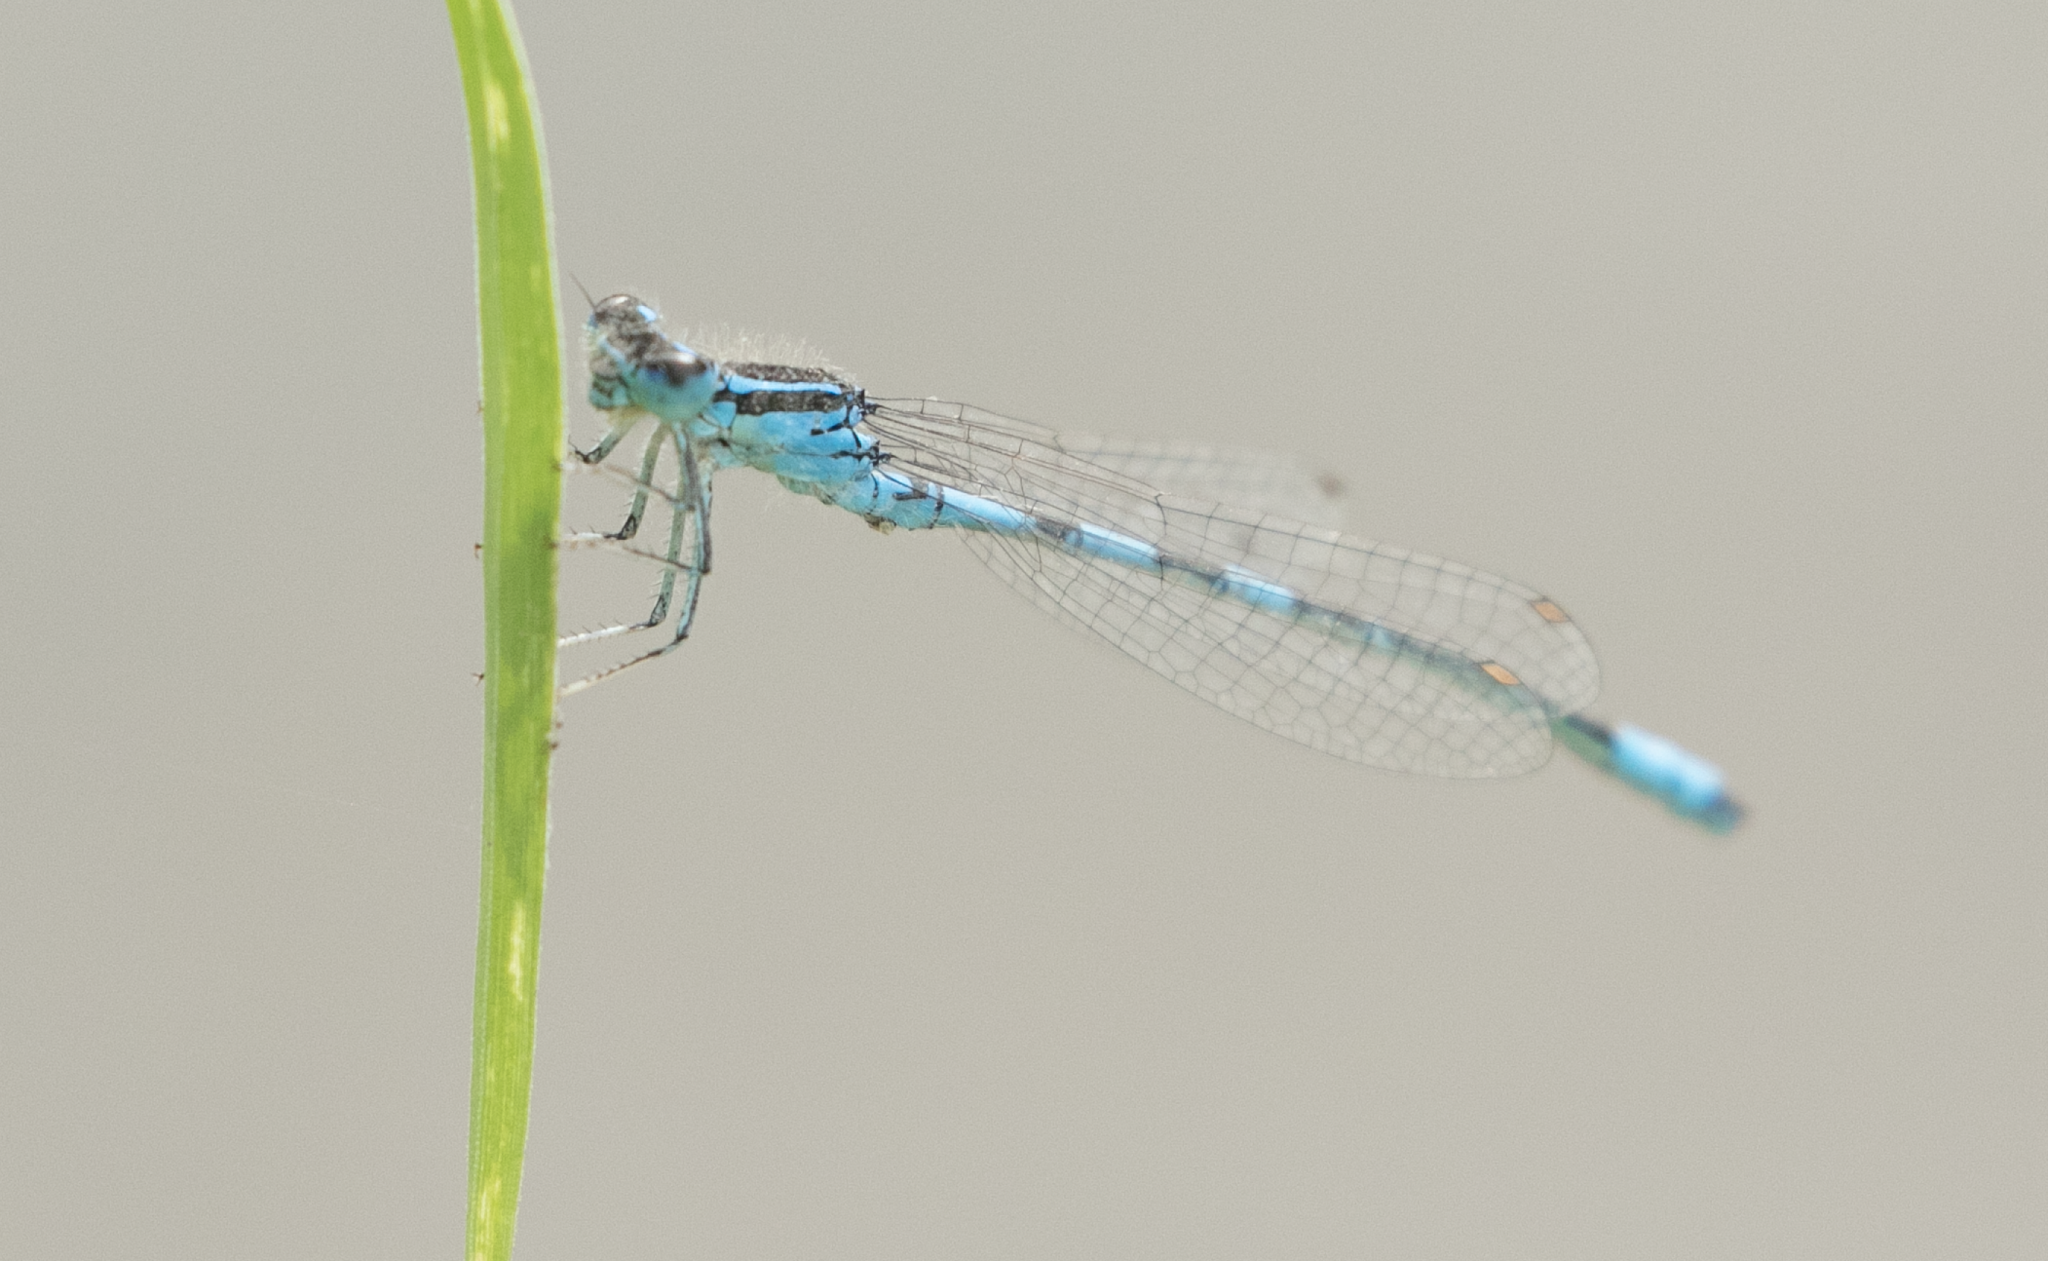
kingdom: Animalia
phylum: Arthropoda
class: Insecta
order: Odonata
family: Coenagrionidae
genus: Coenagrion
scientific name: Coenagrion scitulum
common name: Dainty bluet
